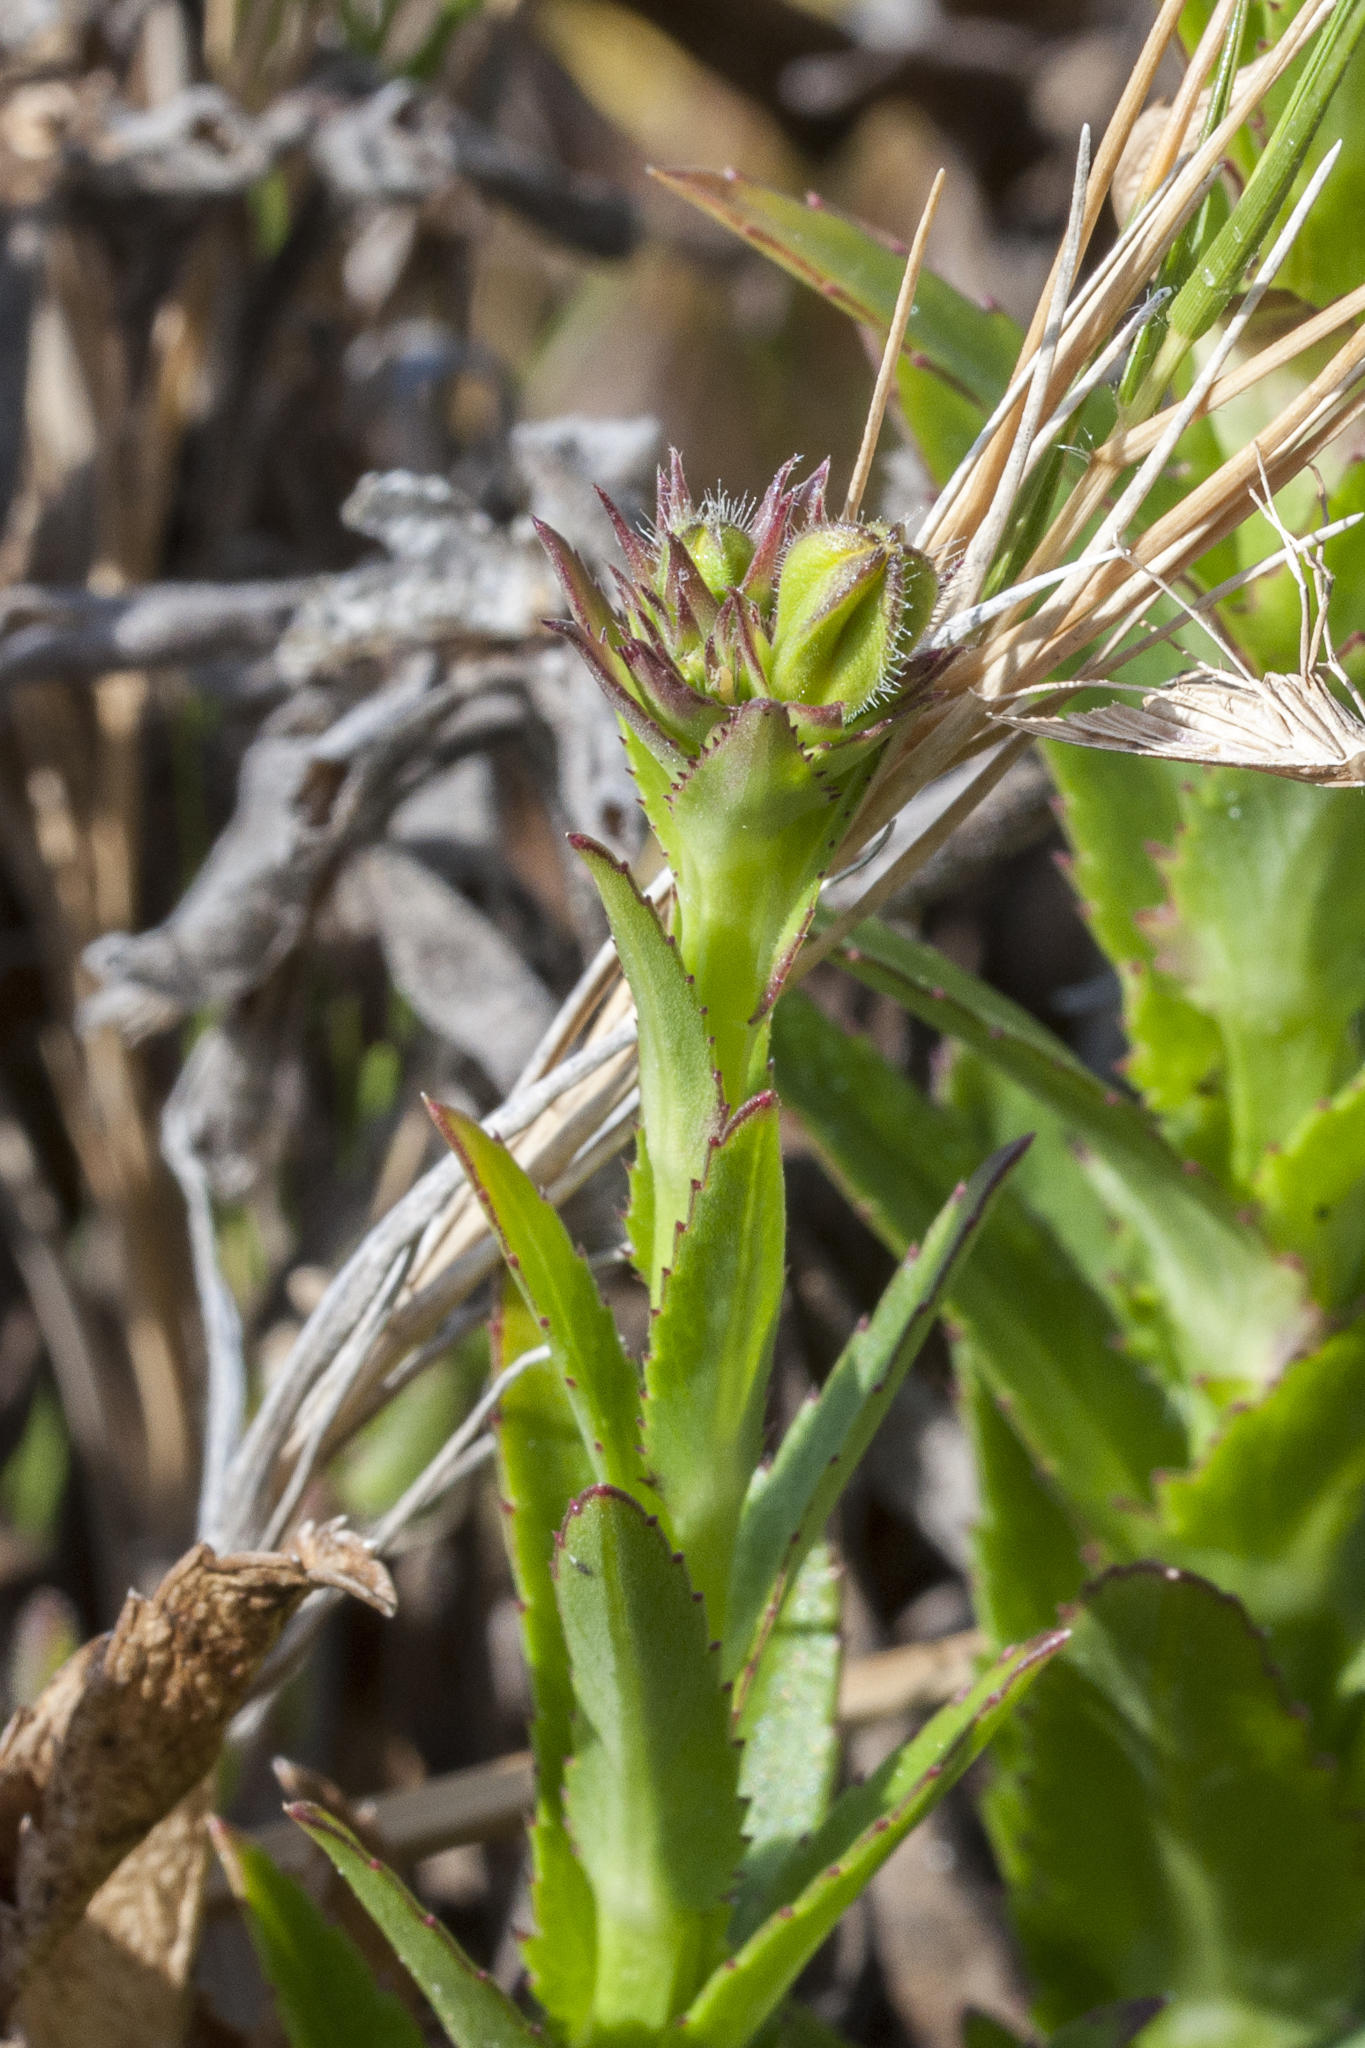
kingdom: Plantae
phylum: Tracheophyta
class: Magnoliopsida
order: Asterales
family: Campanulaceae
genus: Monopsis
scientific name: Monopsis lutea
